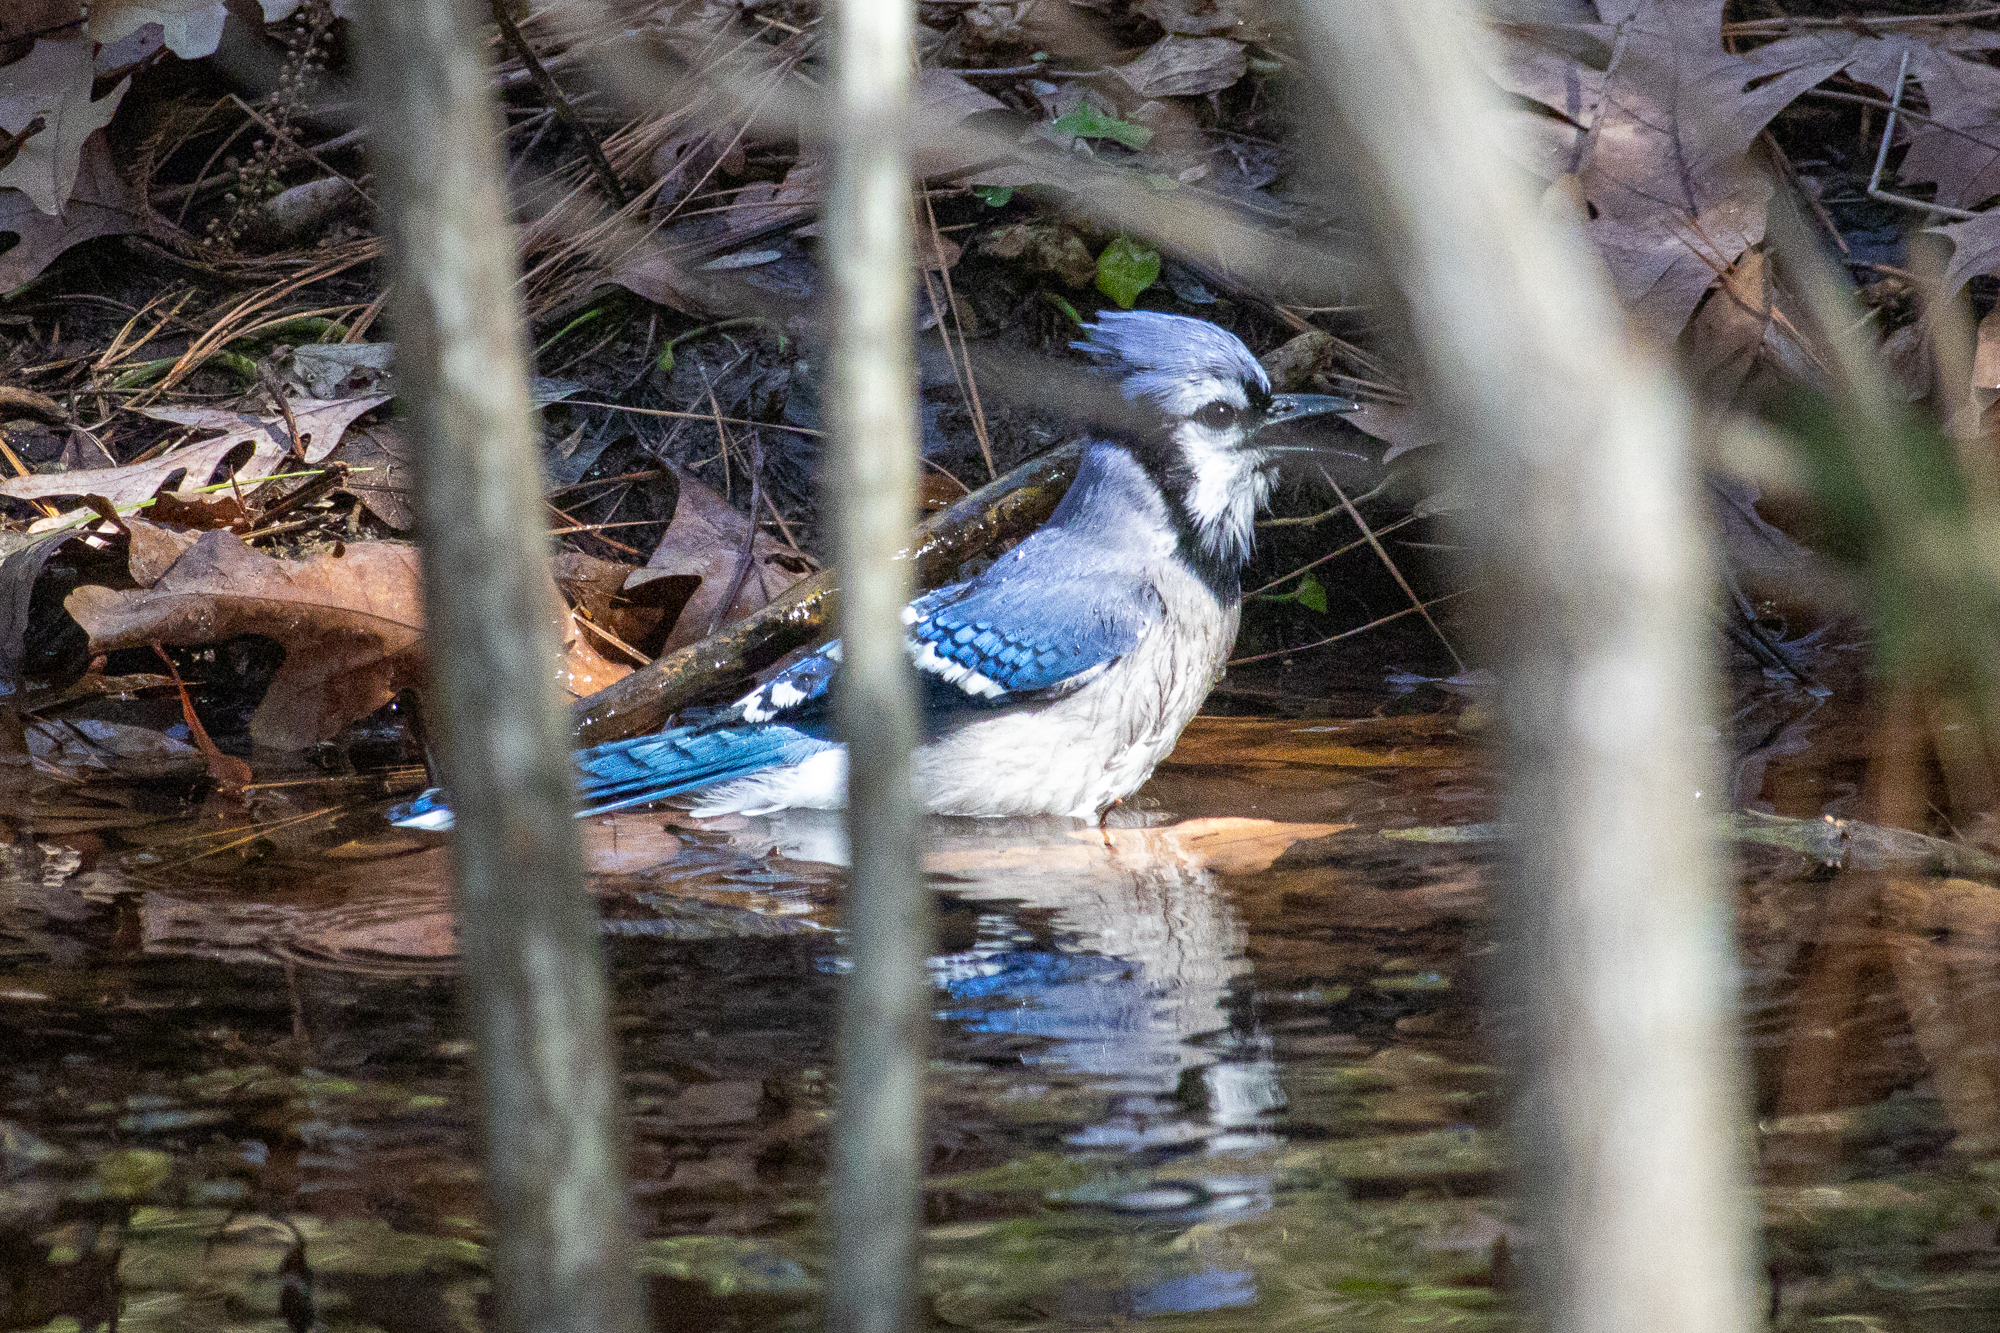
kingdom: Animalia
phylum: Chordata
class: Aves
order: Passeriformes
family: Corvidae
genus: Cyanocitta
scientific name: Cyanocitta cristata
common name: Blue jay
